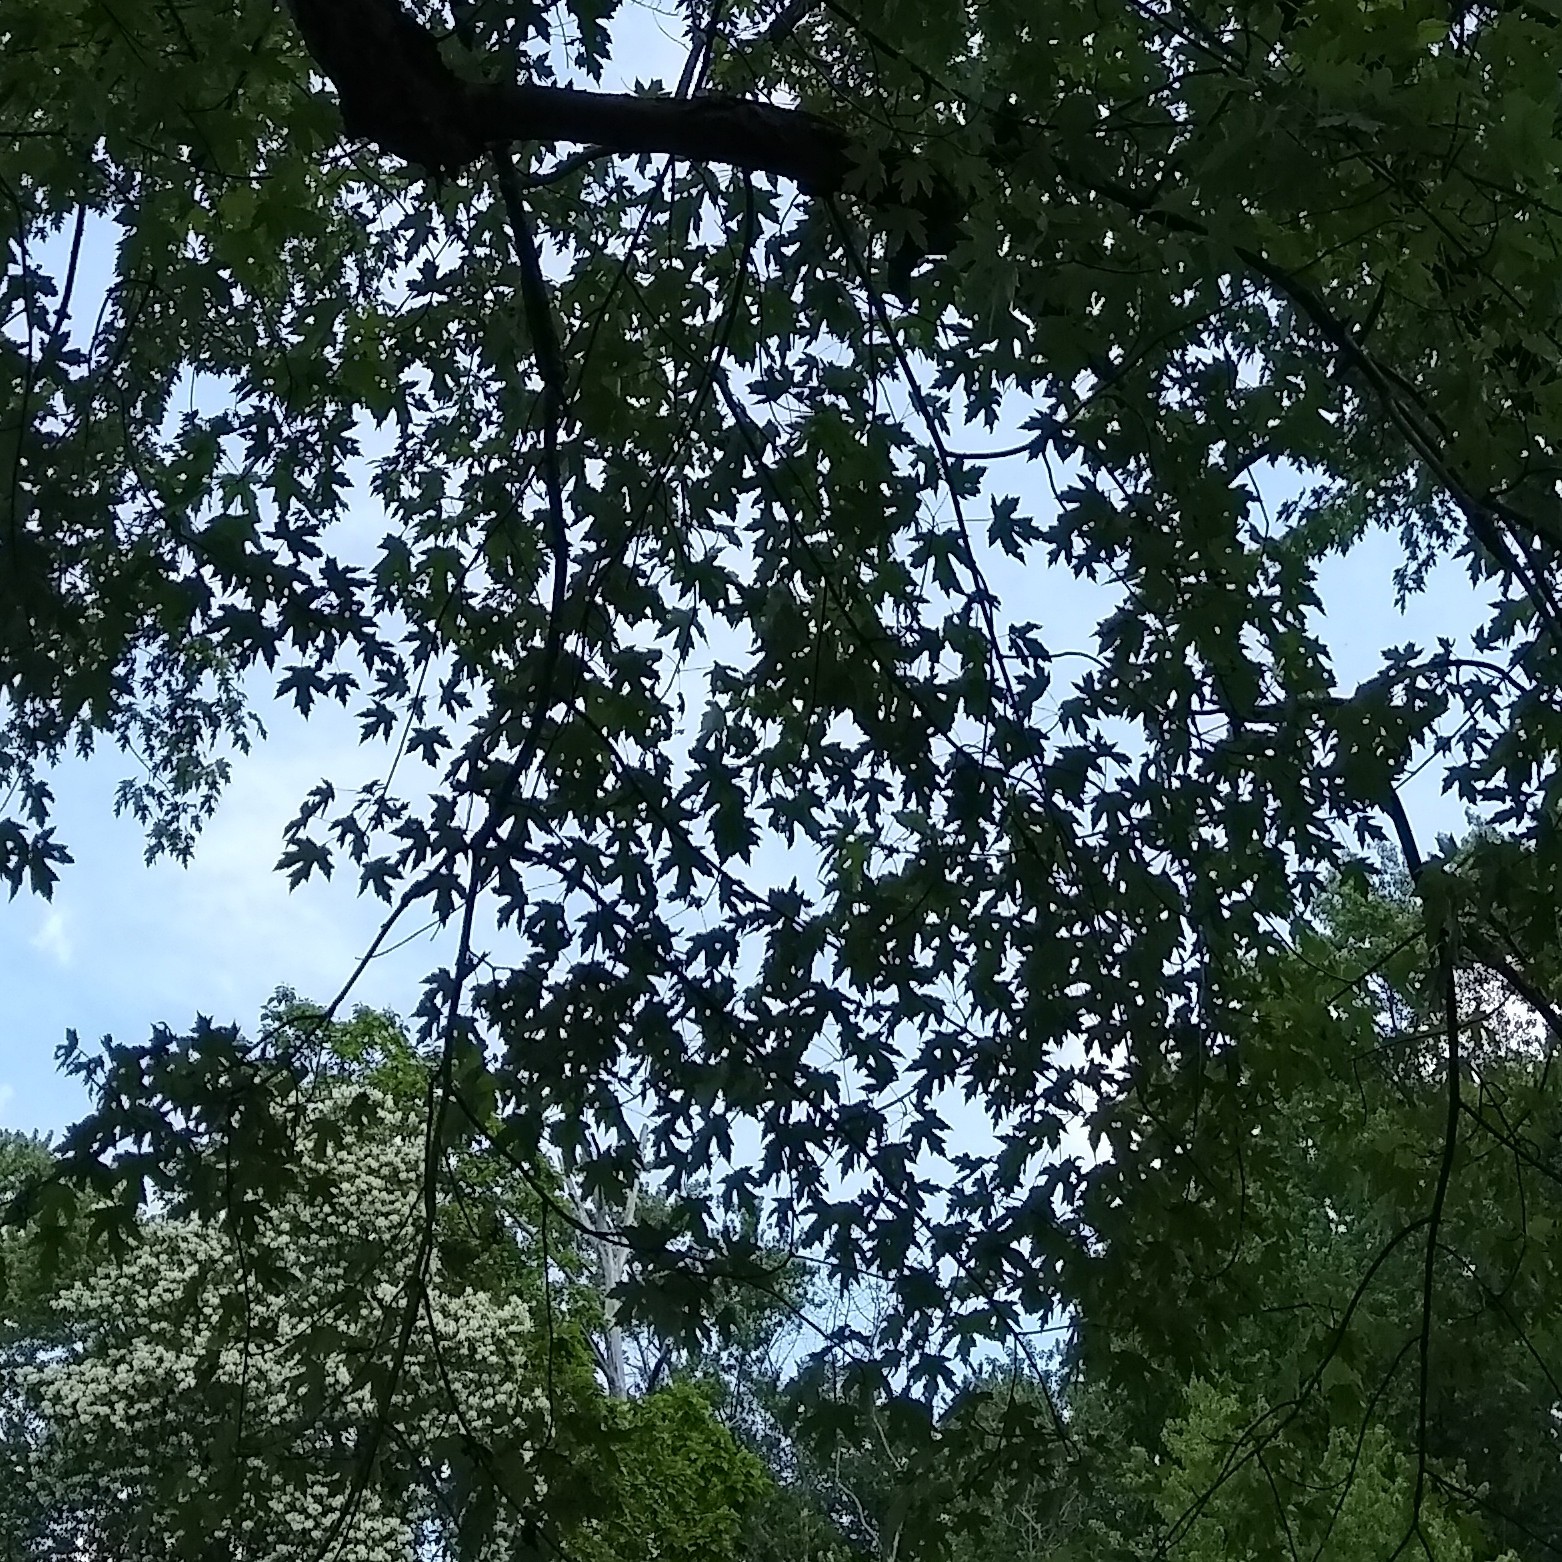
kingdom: Plantae
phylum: Tracheophyta
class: Magnoliopsida
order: Sapindales
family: Sapindaceae
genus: Acer
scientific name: Acer saccharinum
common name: Silver maple
